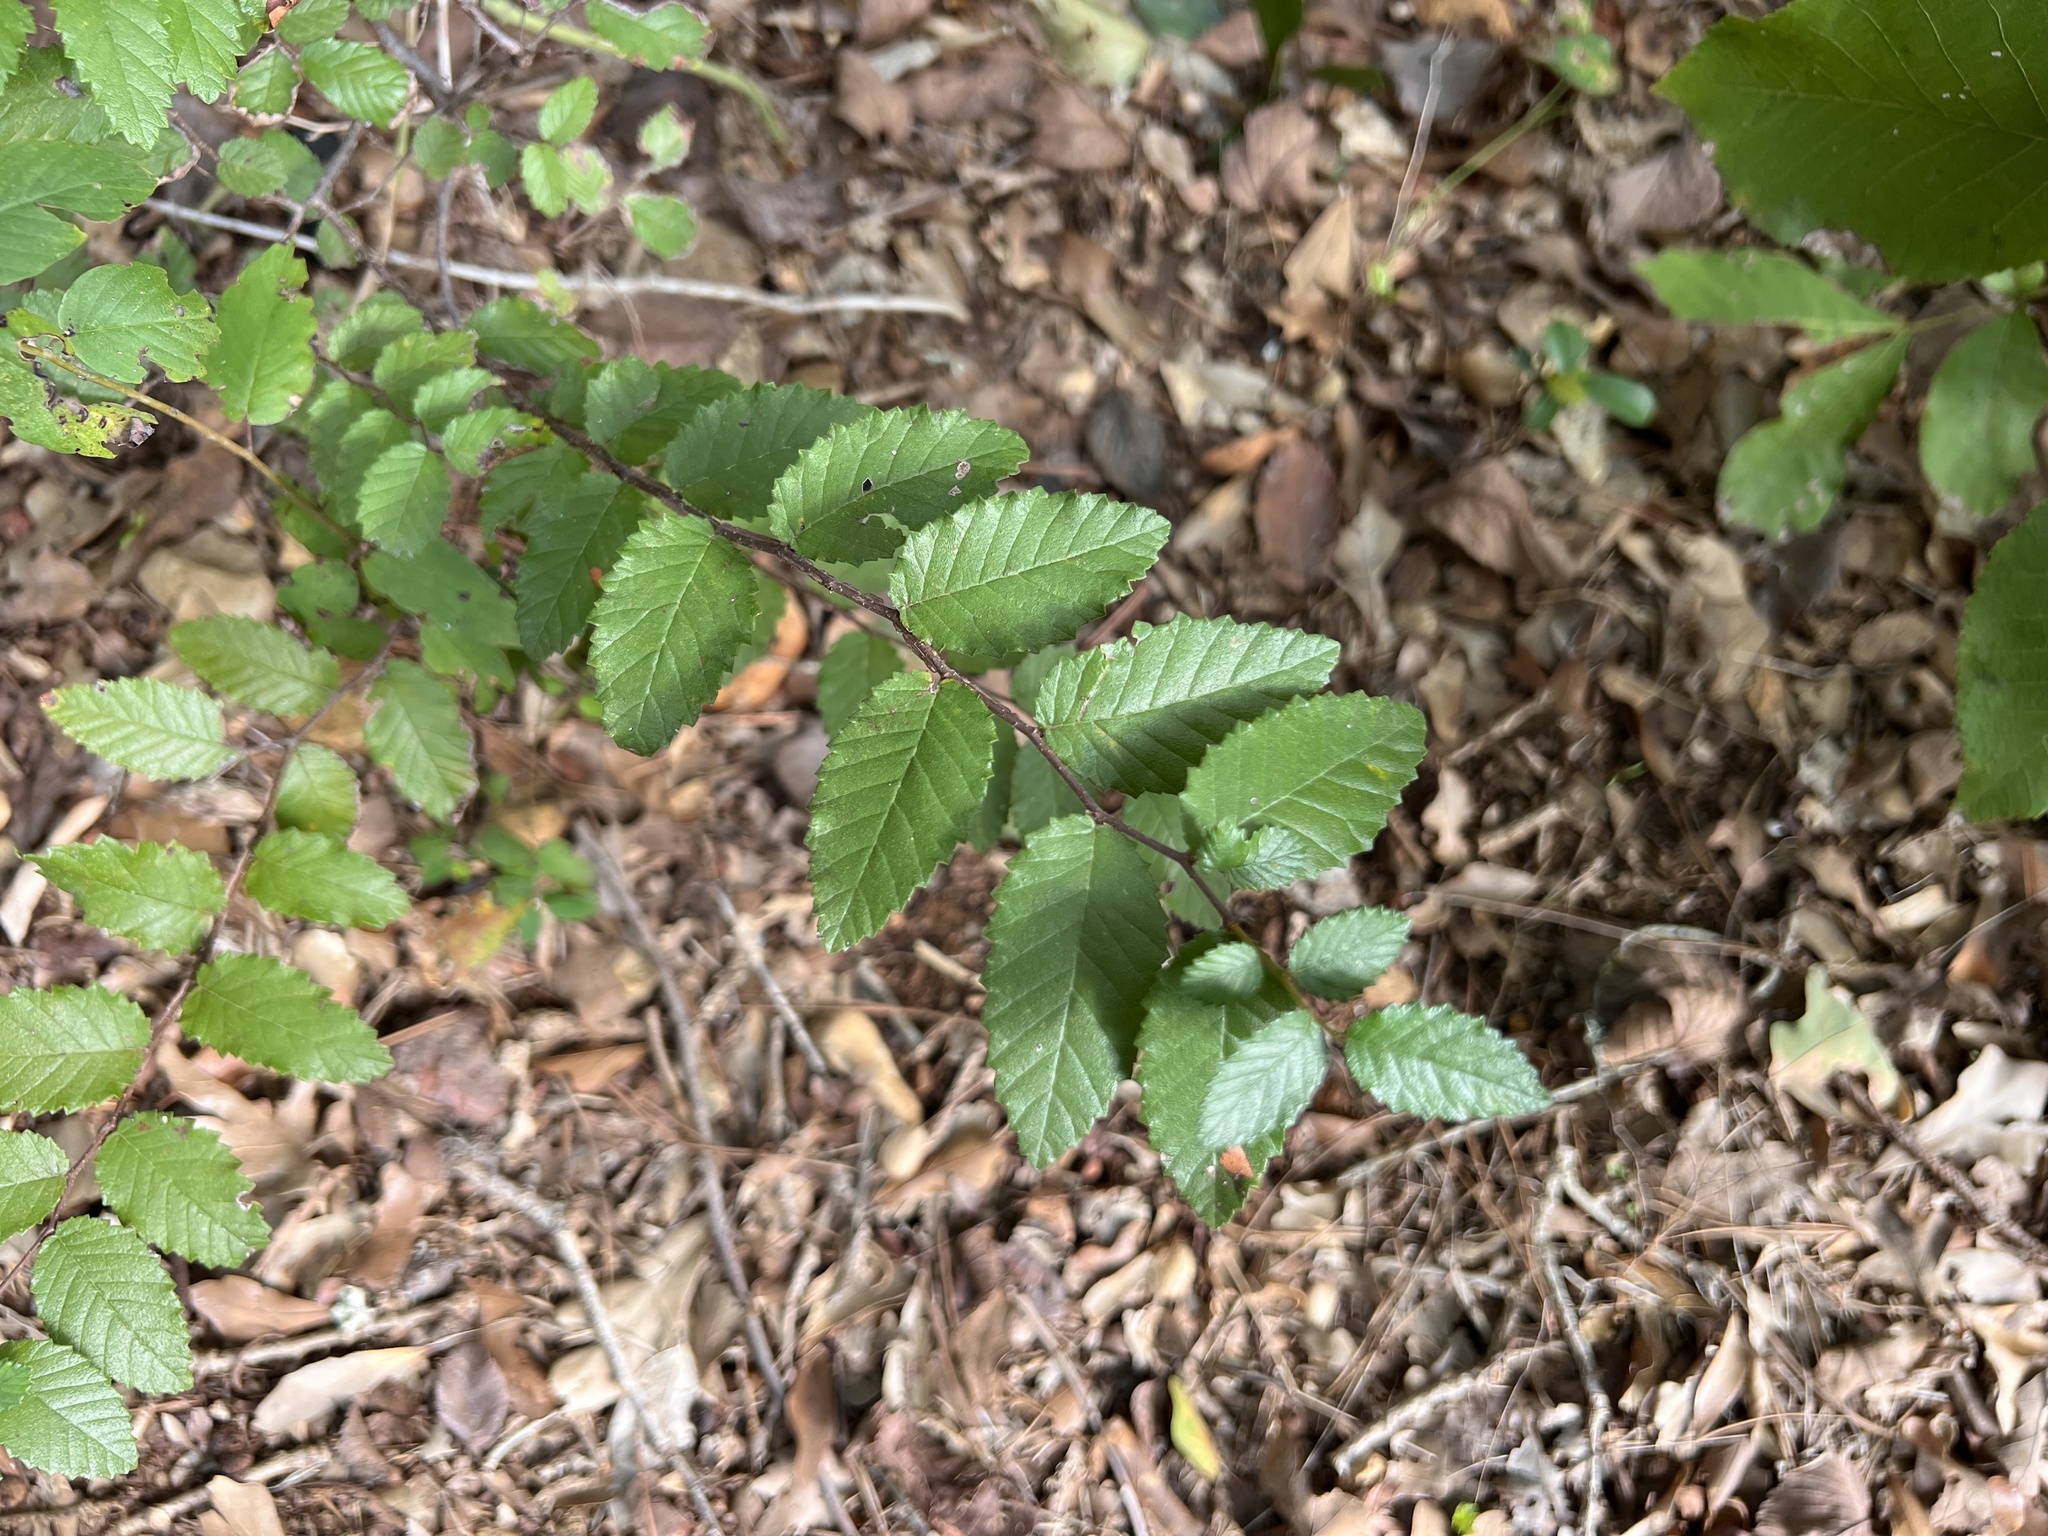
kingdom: Plantae
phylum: Tracheophyta
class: Magnoliopsida
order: Rosales
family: Ulmaceae
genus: Ulmus
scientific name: Ulmus crassifolia
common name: Basket elm
